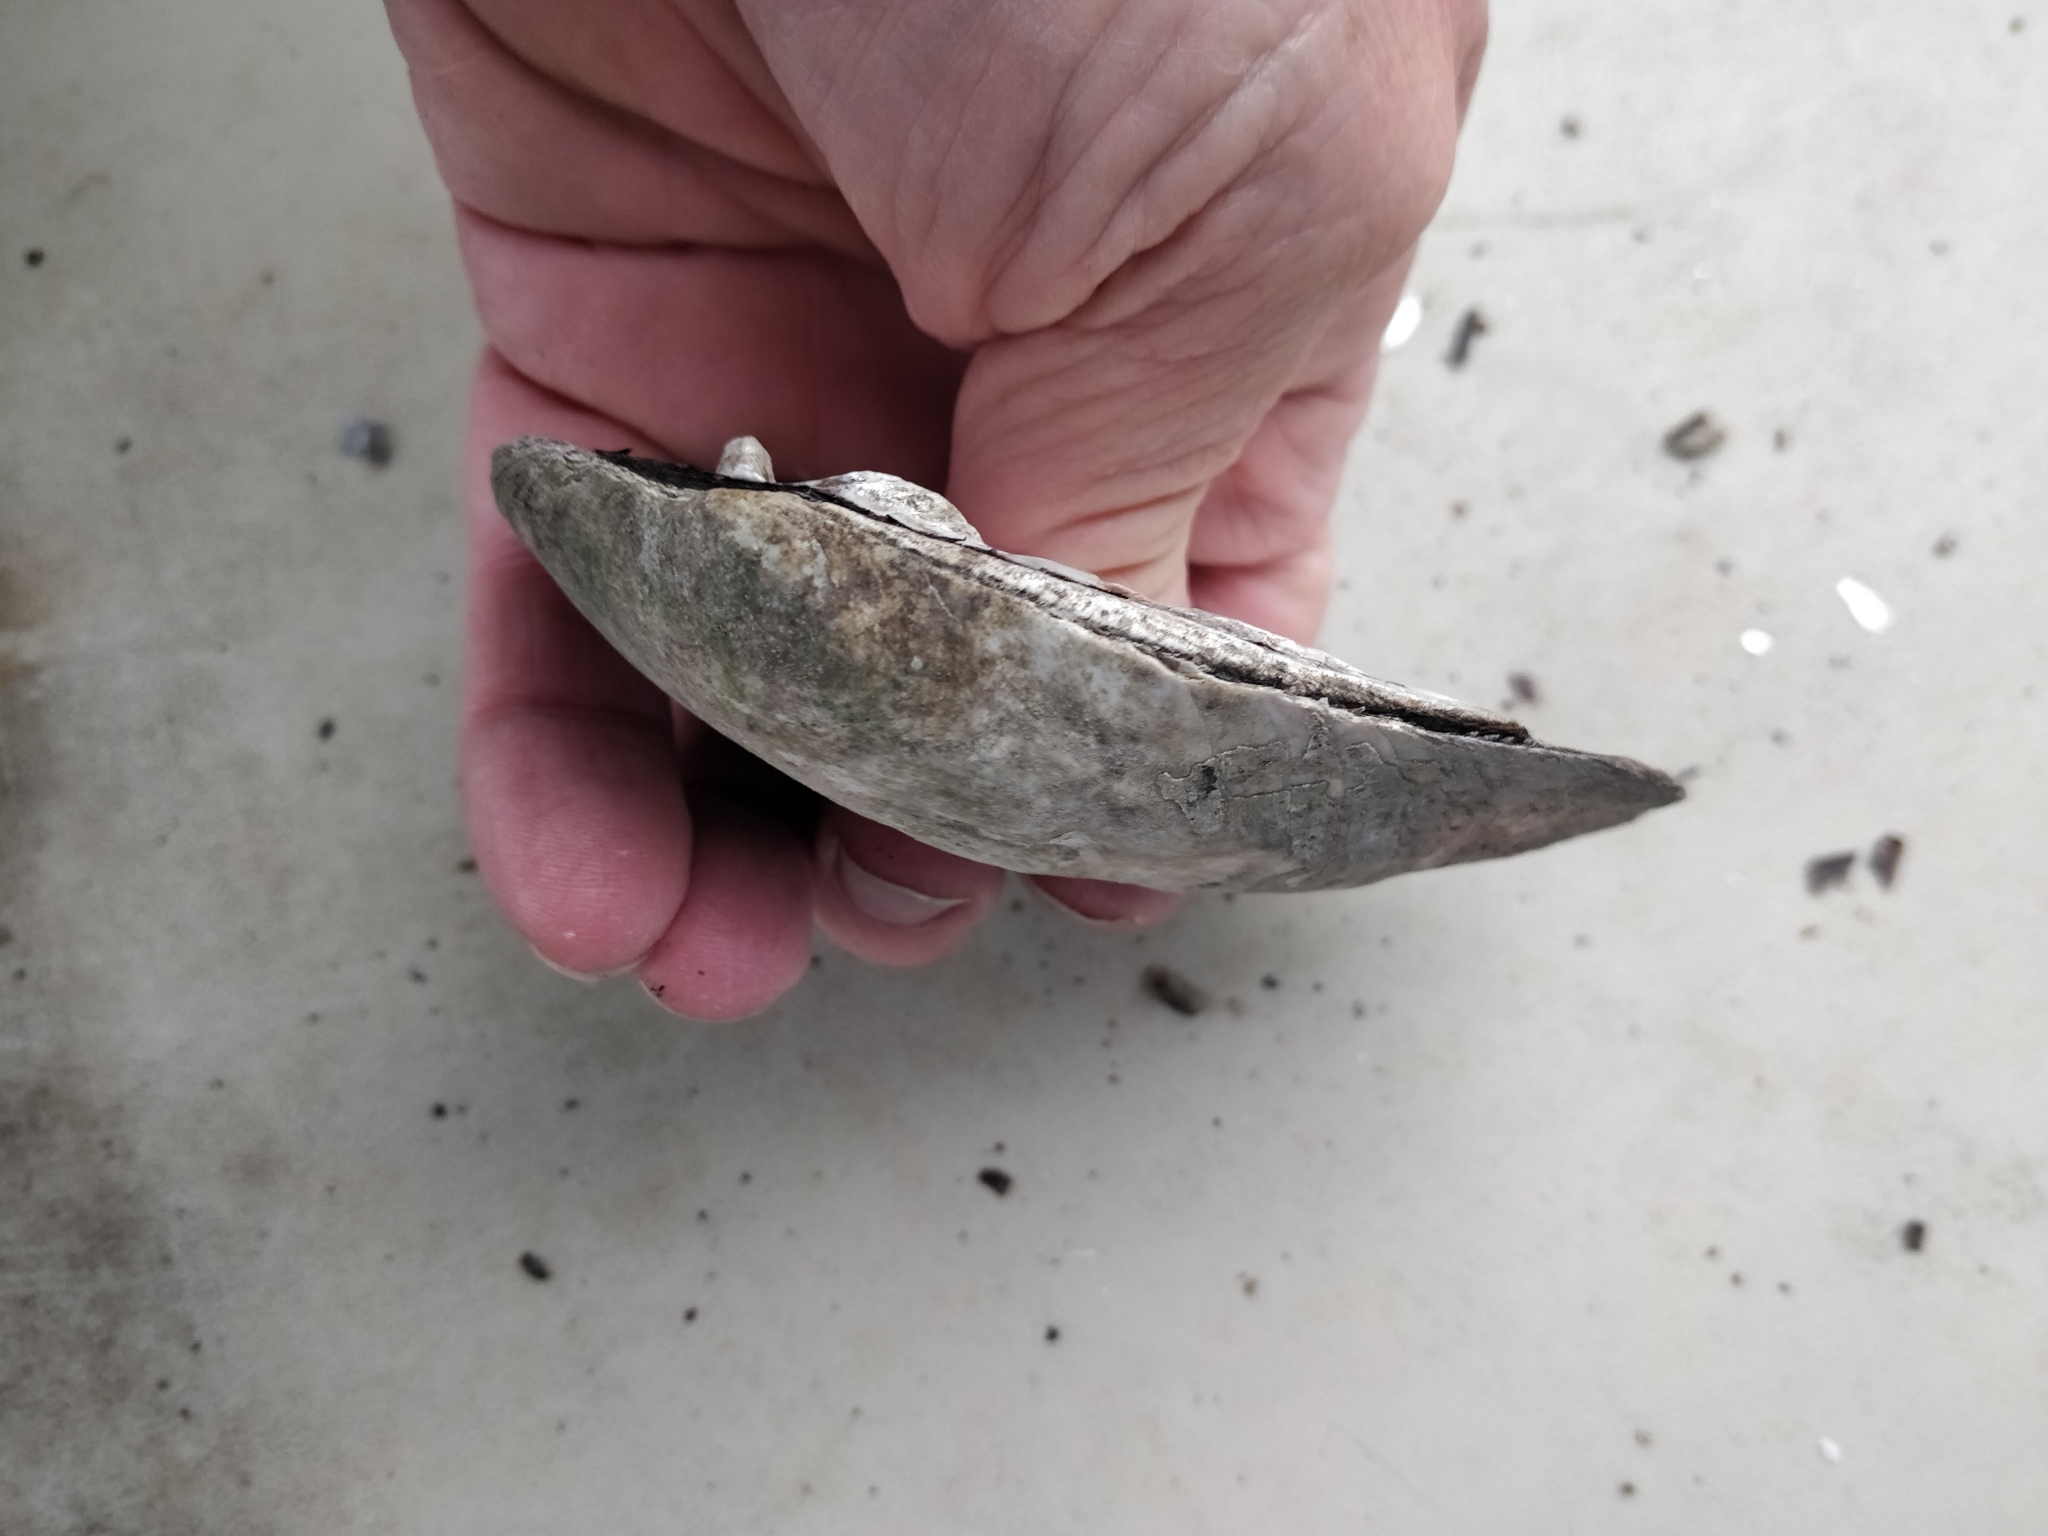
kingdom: Animalia
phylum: Mollusca
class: Bivalvia
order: Unionida
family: Unionidae
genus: Amblema
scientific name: Amblema plicata
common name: Threeridge
